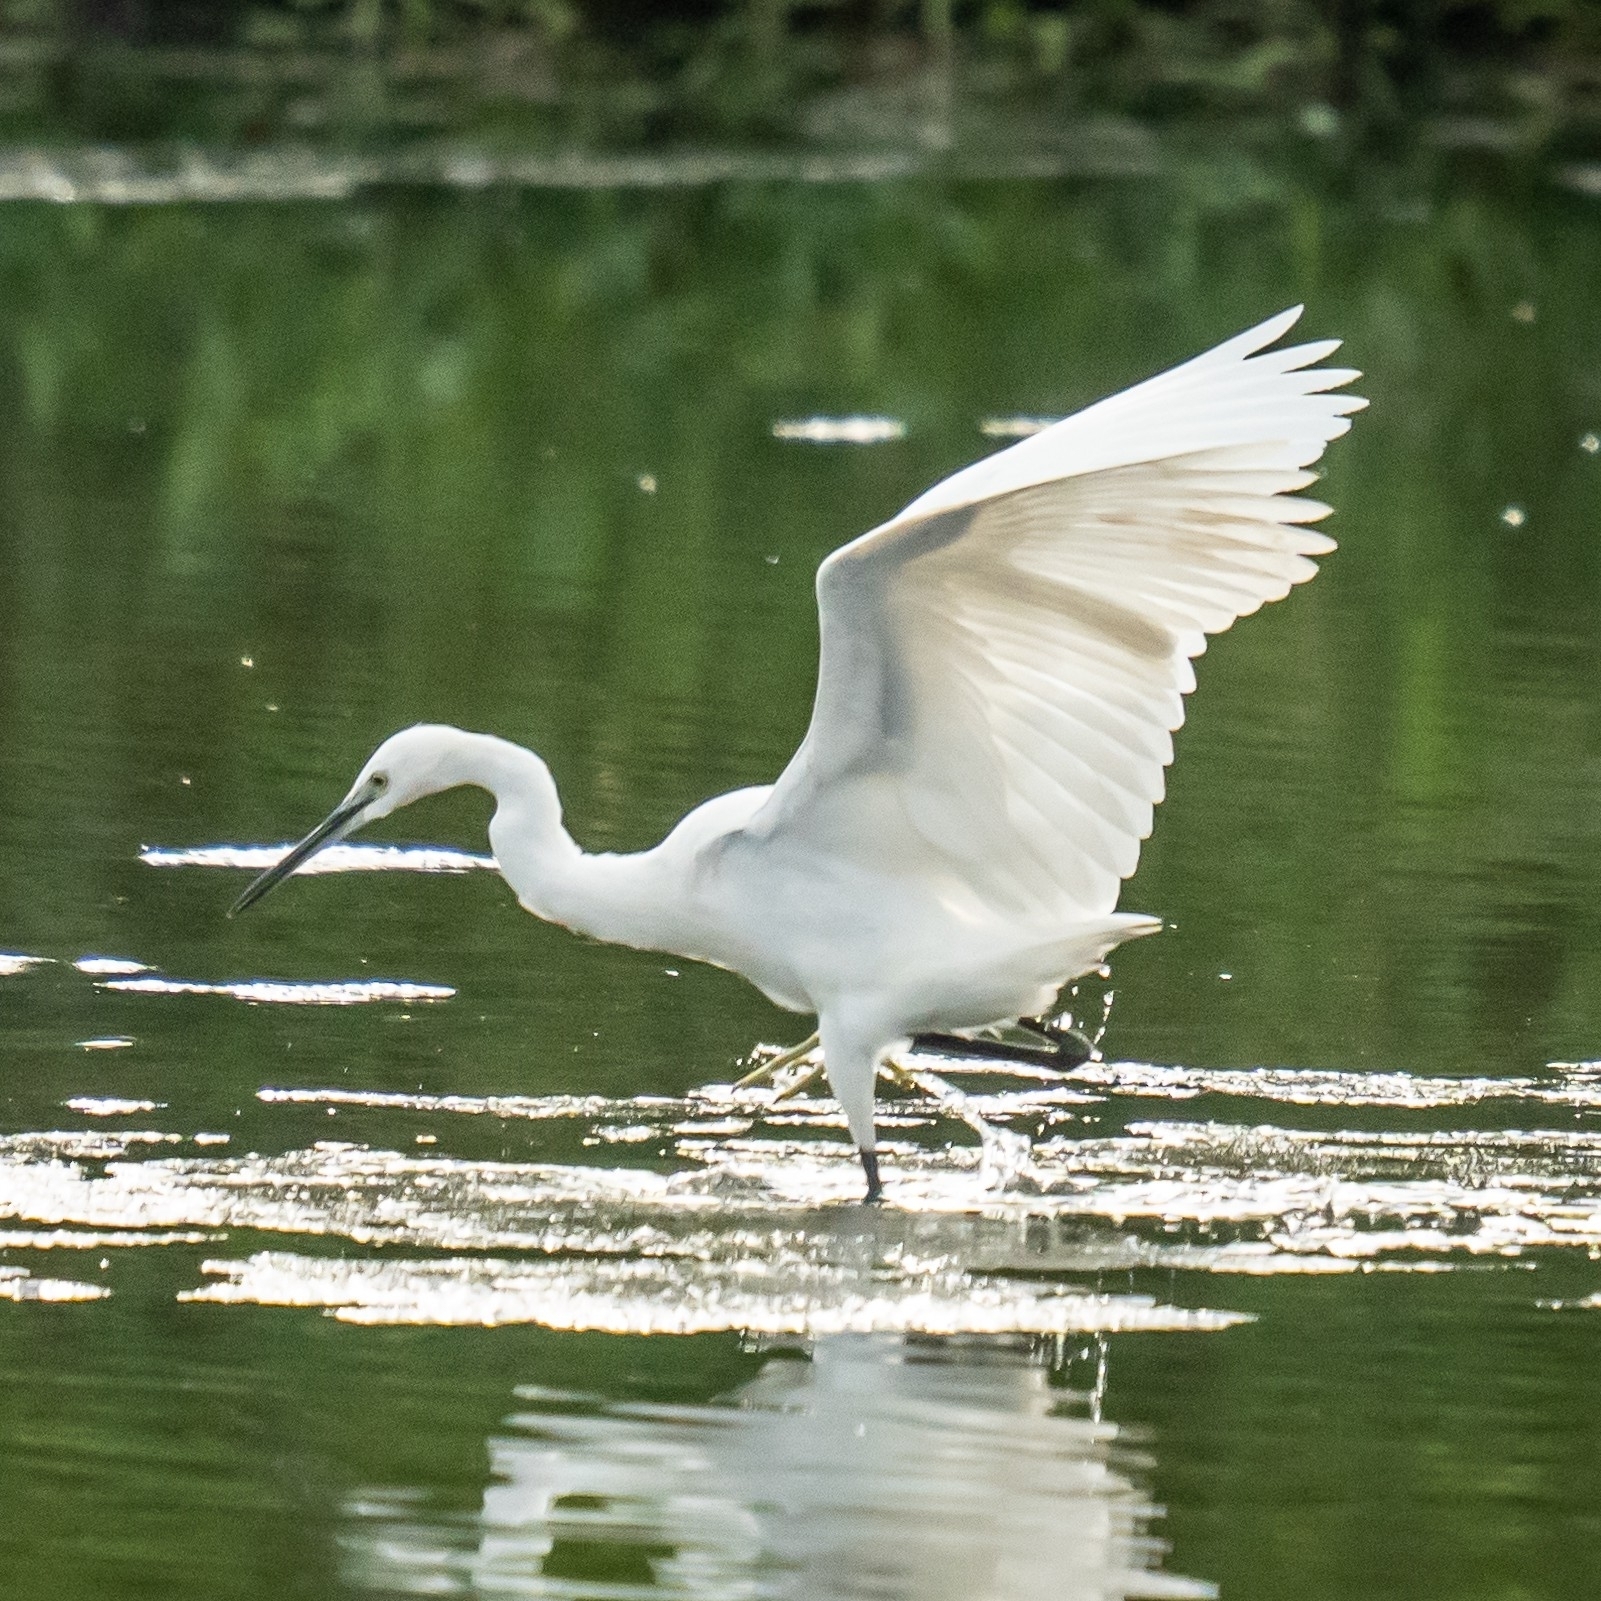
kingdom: Animalia
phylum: Chordata
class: Aves
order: Pelecaniformes
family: Ardeidae
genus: Egretta
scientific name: Egretta garzetta
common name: Little egret
